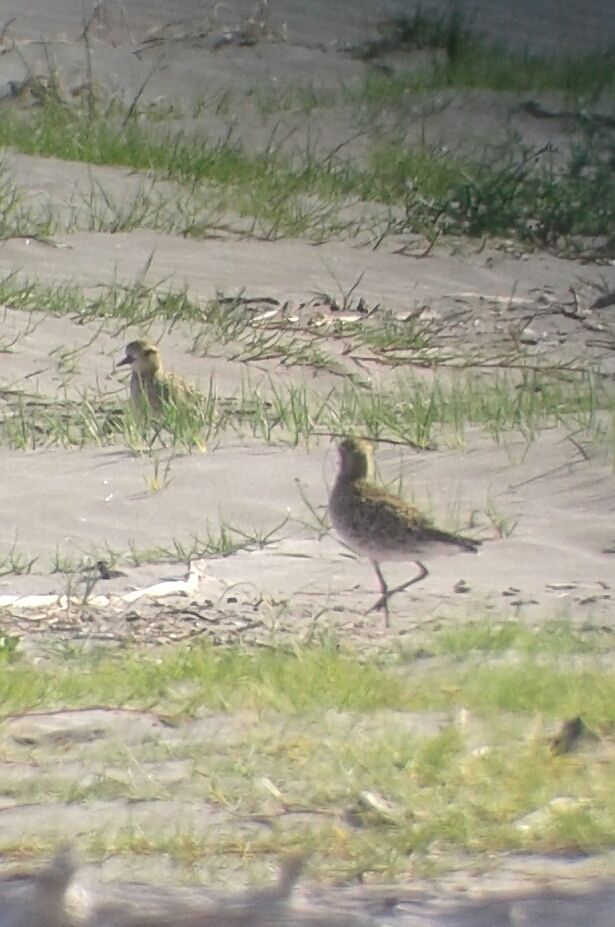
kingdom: Animalia
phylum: Chordata
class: Aves
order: Charadriiformes
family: Charadriidae
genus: Pluvialis
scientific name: Pluvialis fulva
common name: Pacific golden plover
